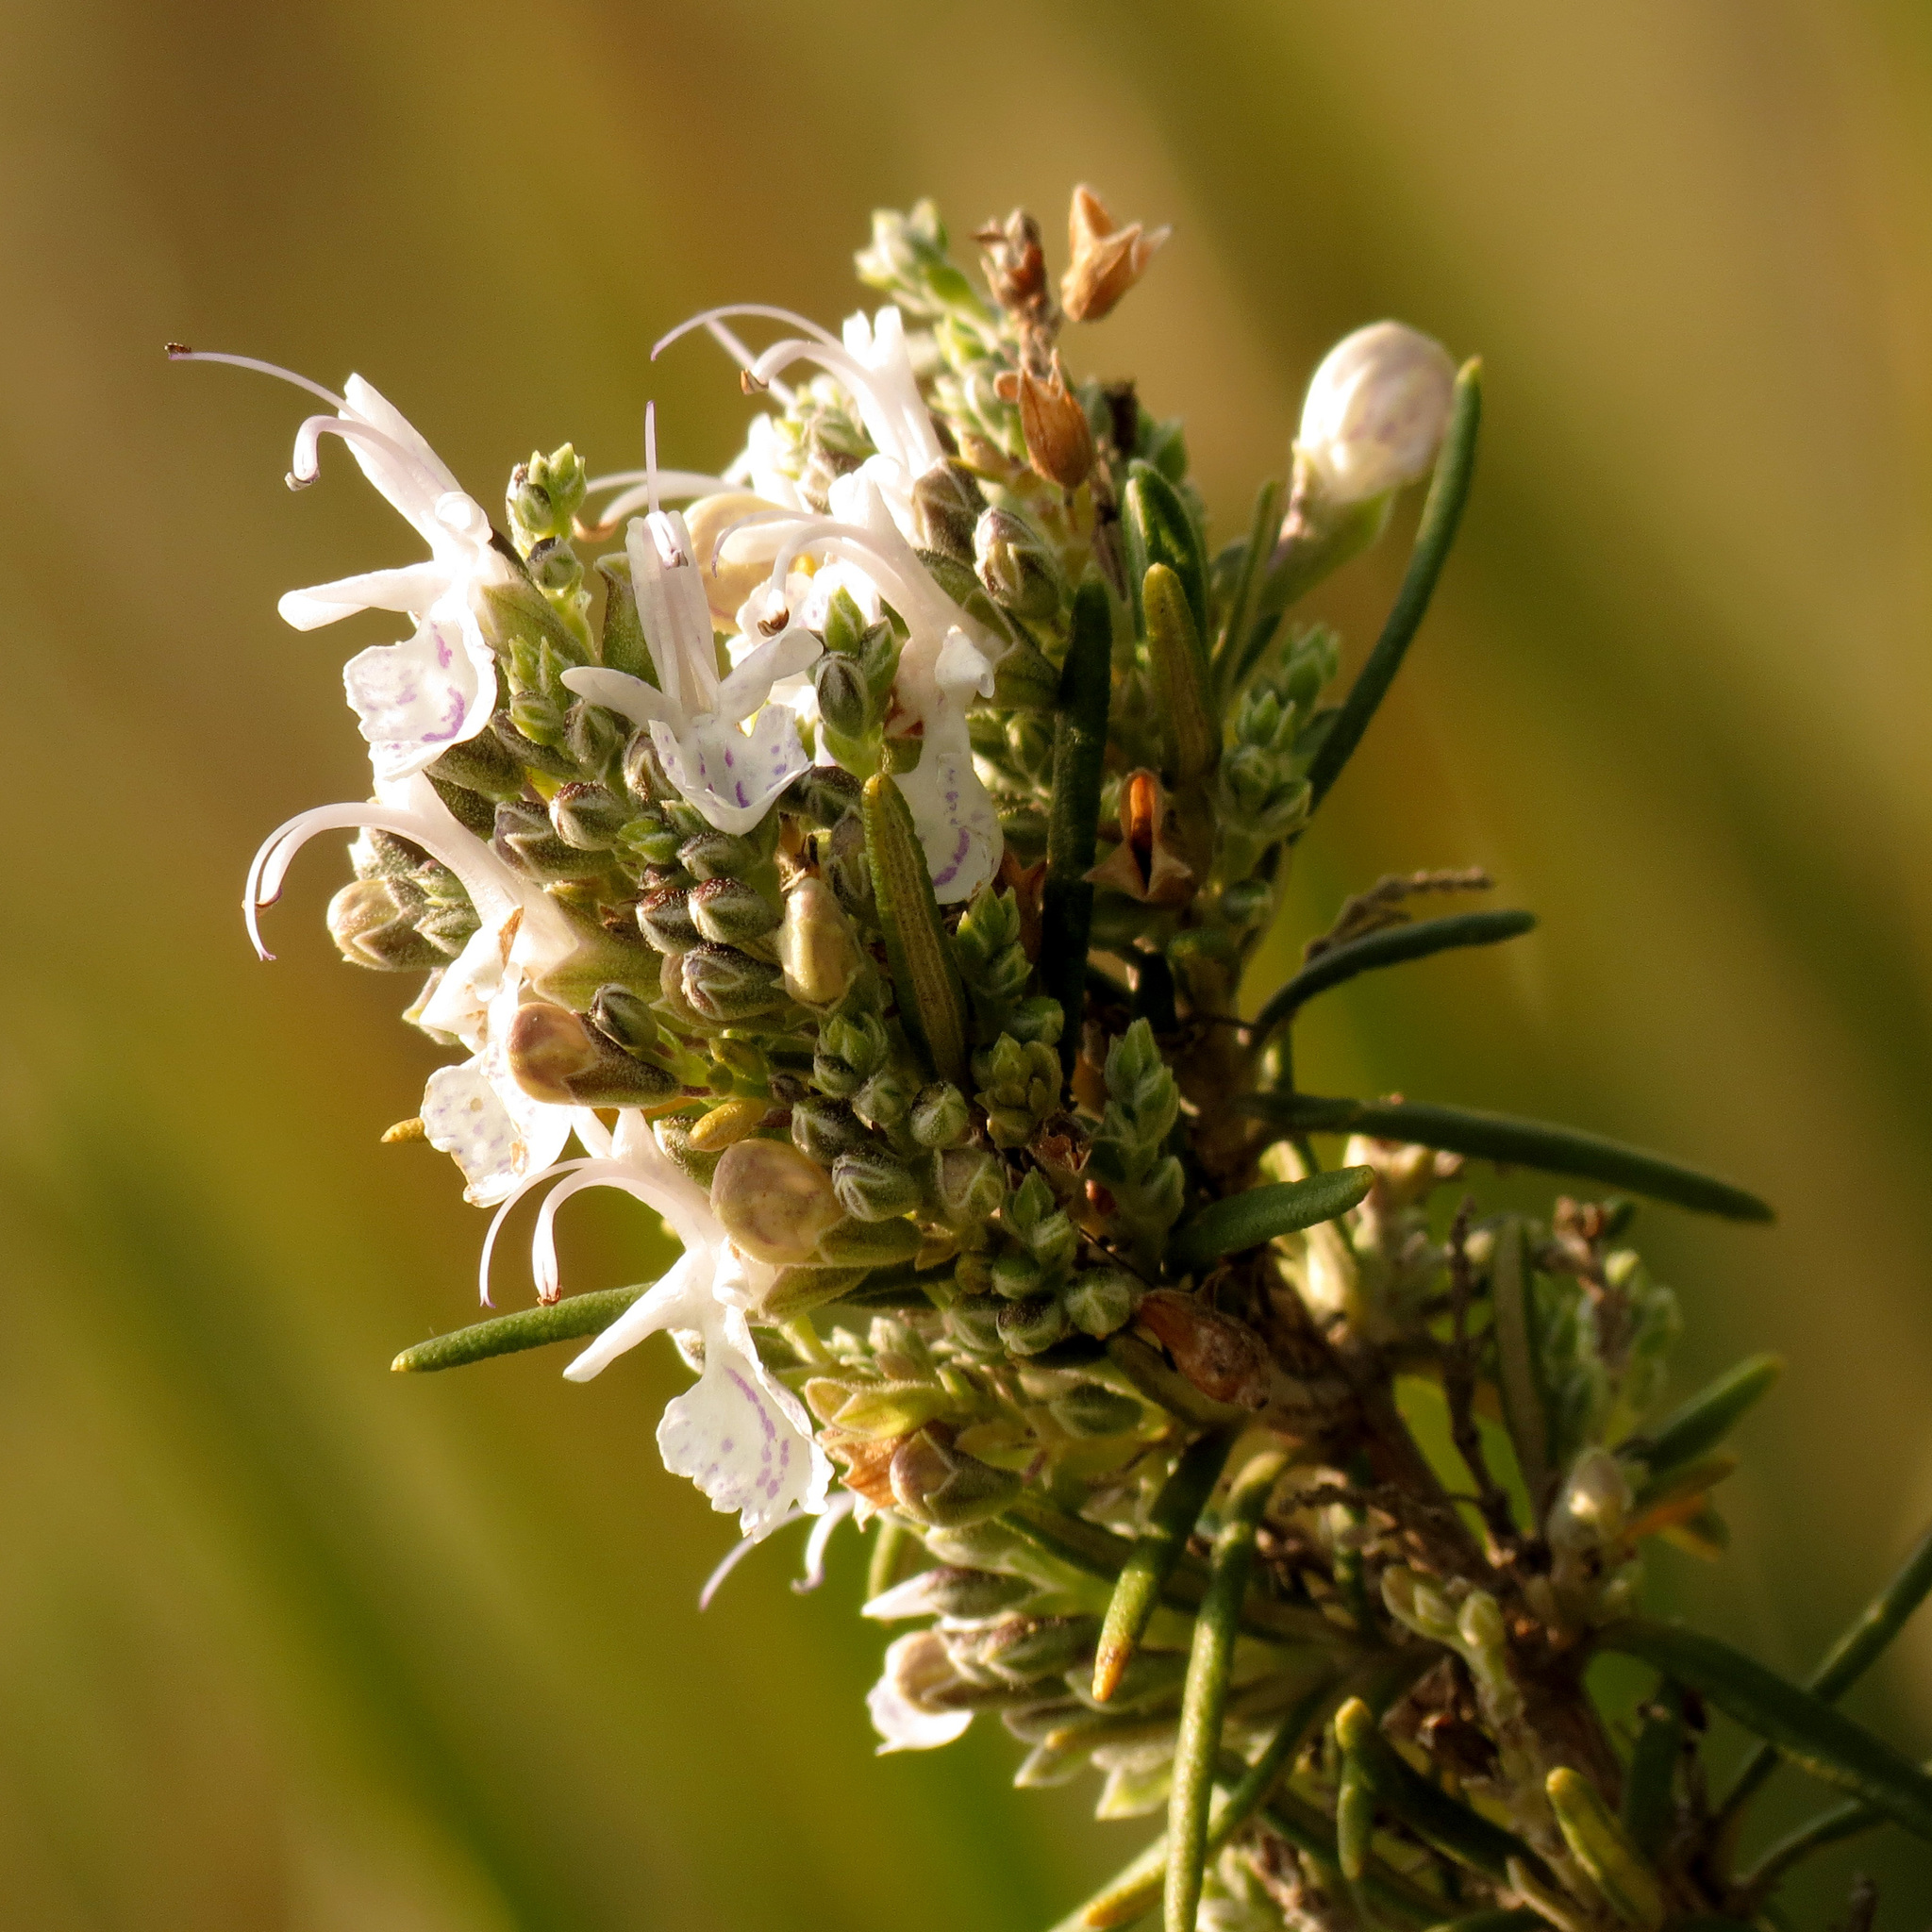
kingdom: Plantae
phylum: Tracheophyta
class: Magnoliopsida
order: Lamiales
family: Lamiaceae
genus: Salvia
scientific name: Salvia rosmarinus
